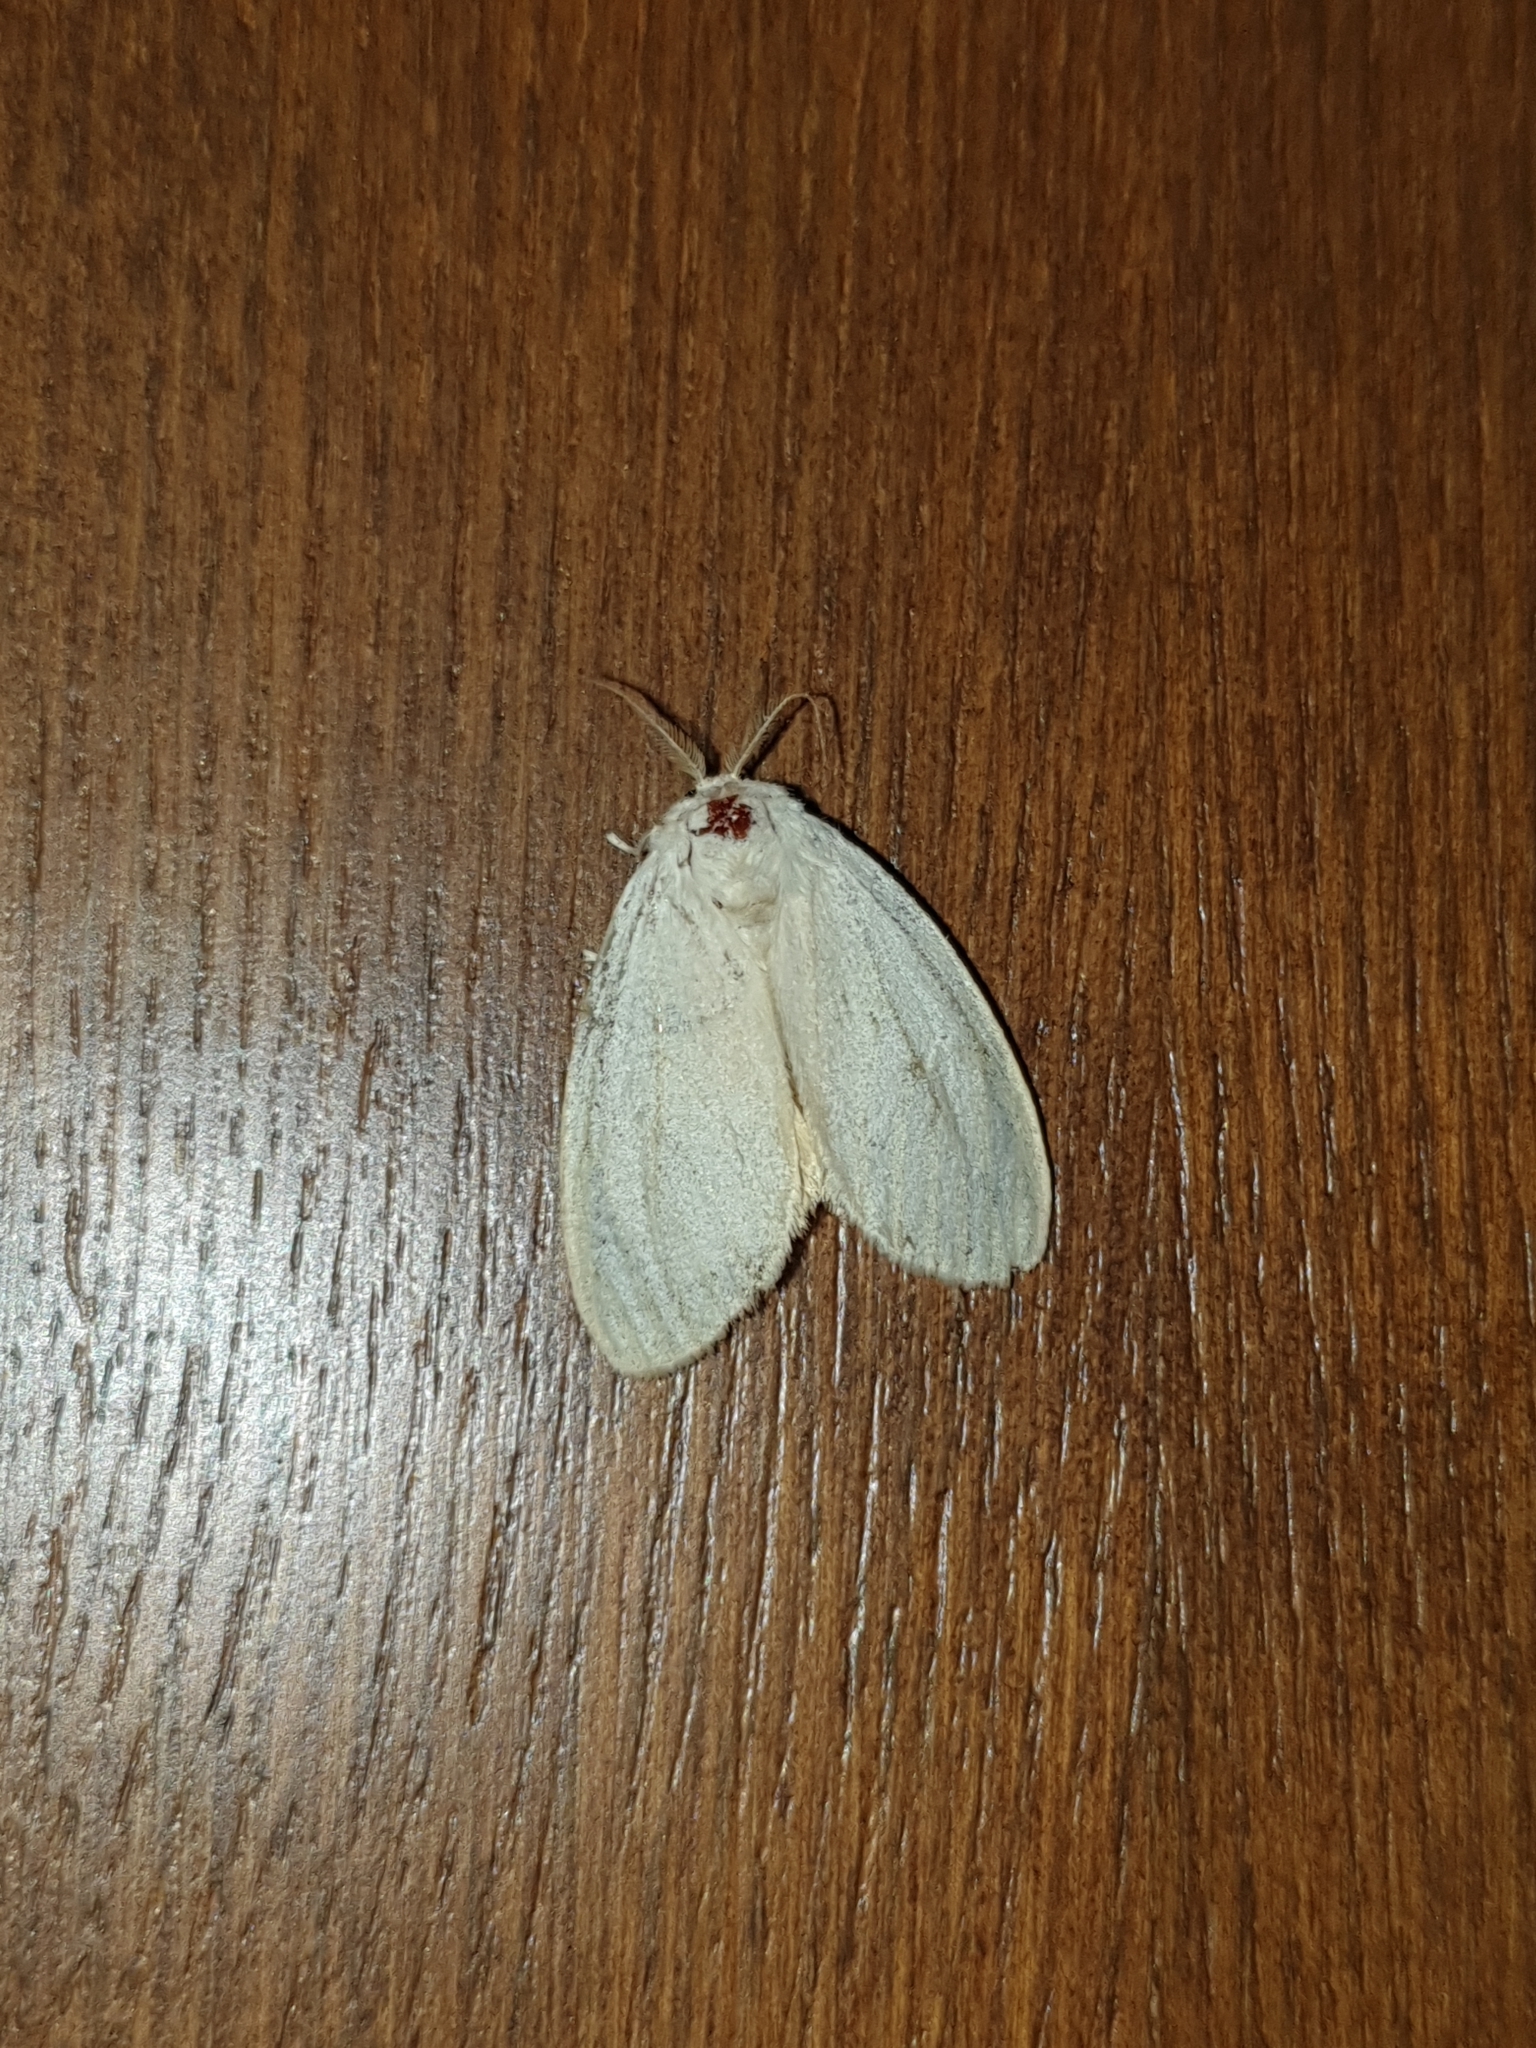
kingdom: Animalia
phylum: Arthropoda
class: Insecta
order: Lepidoptera
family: Erebidae
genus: Perina
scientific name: Perina nuda
